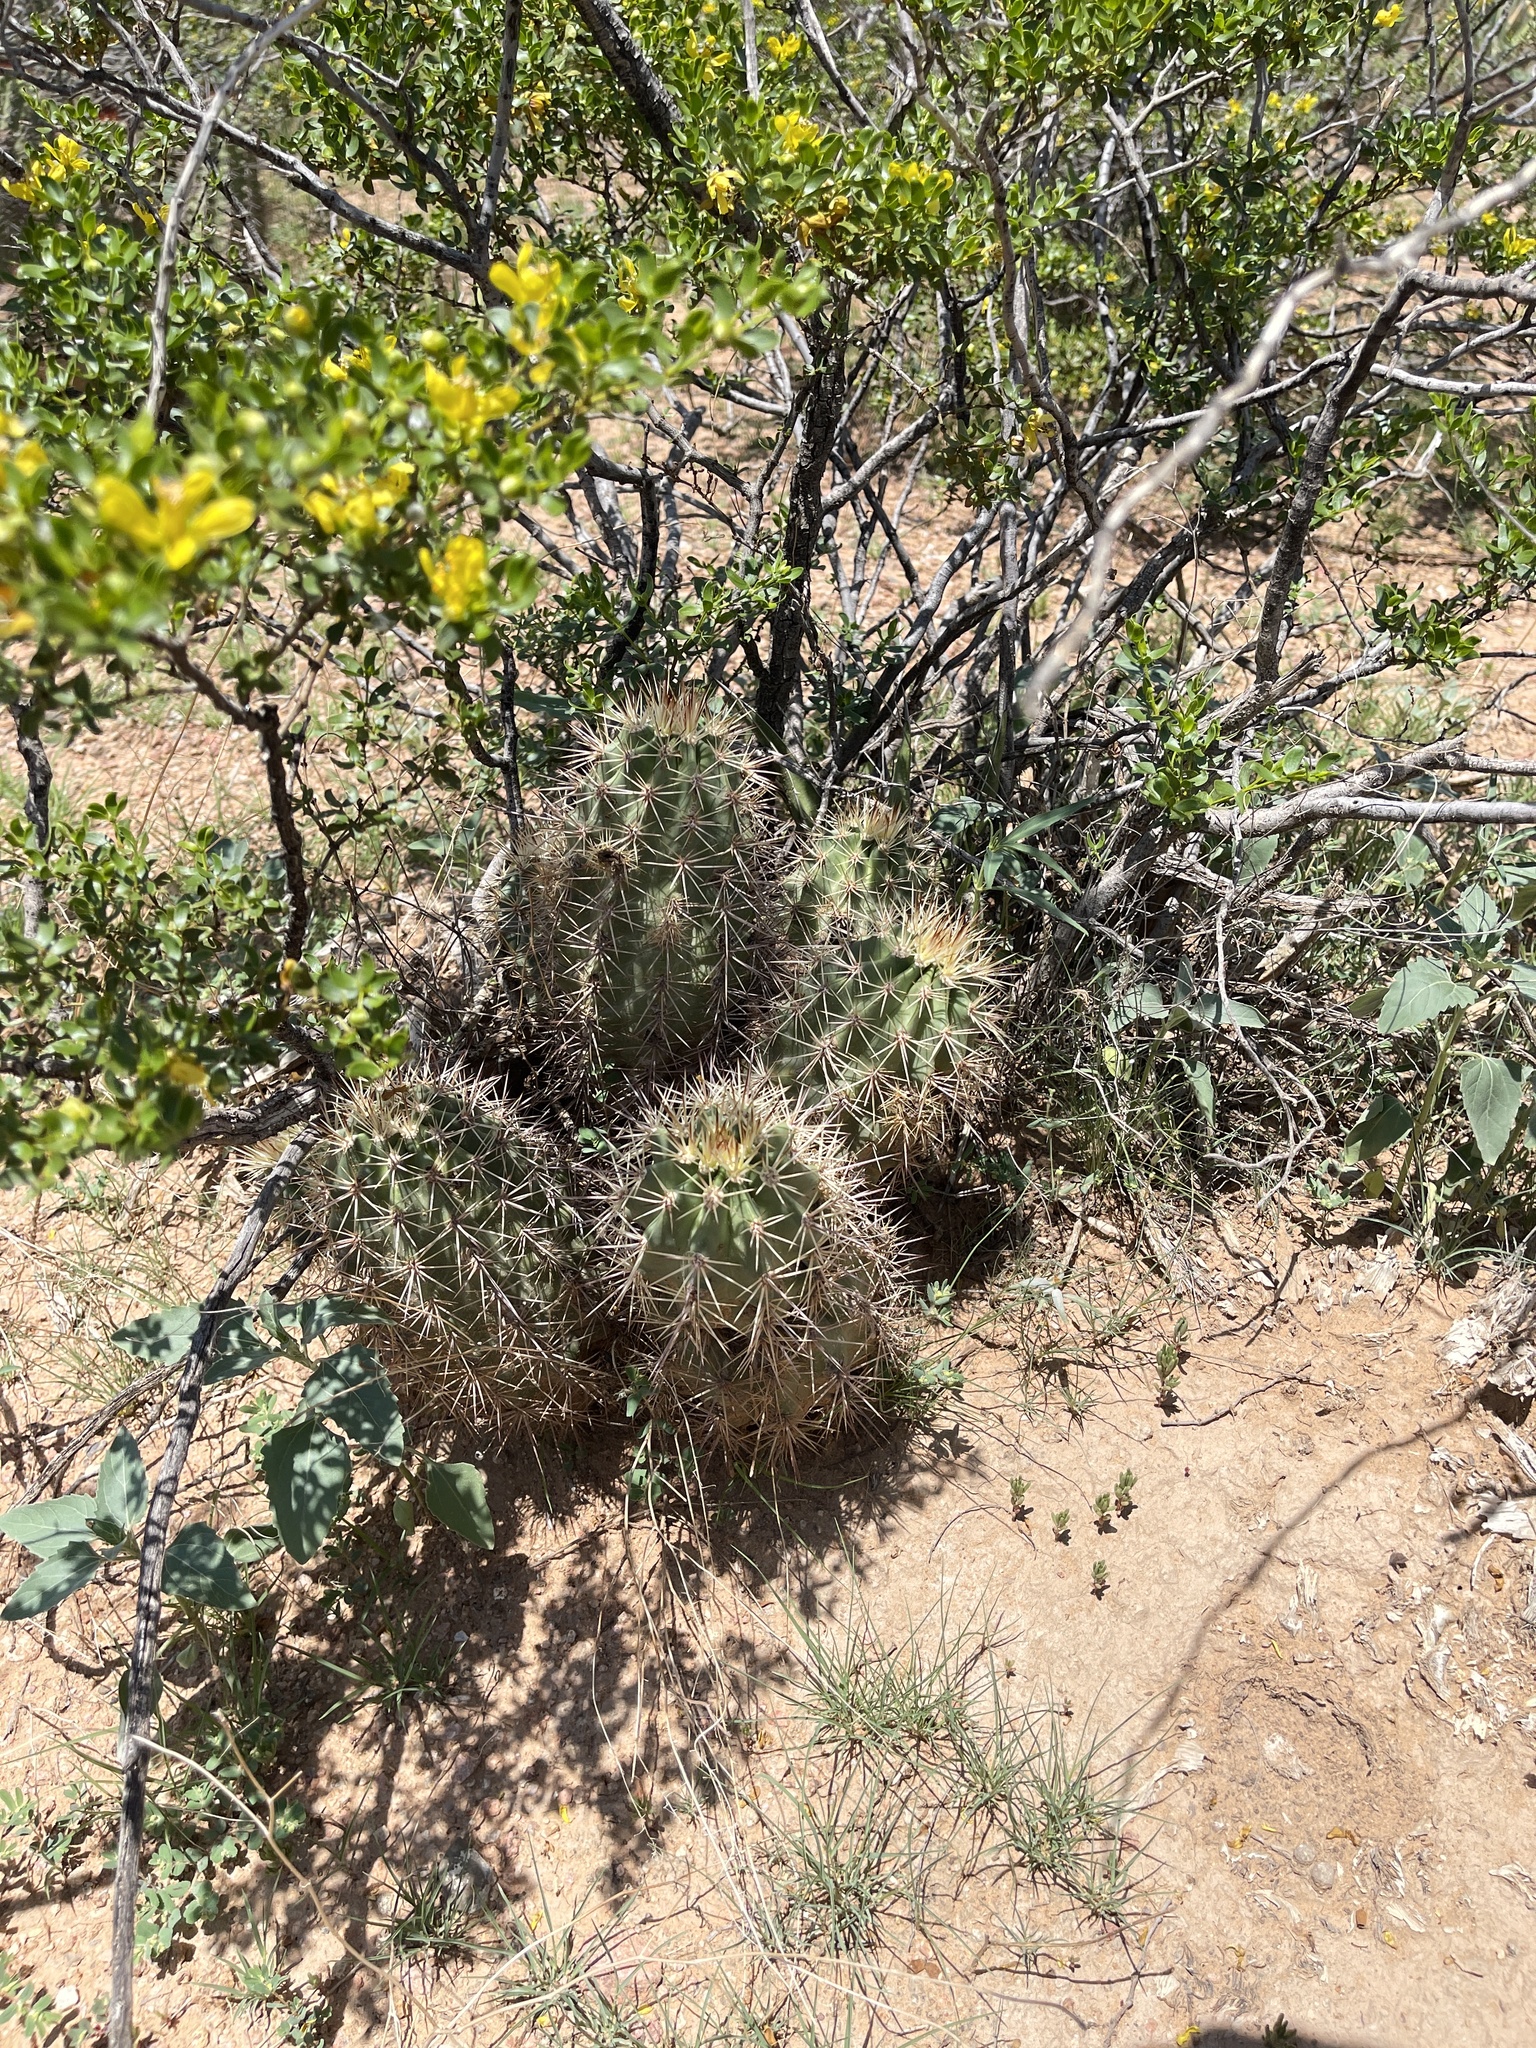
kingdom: Plantae
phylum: Tracheophyta
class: Magnoliopsida
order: Caryophyllales
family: Cactaceae
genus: Echinocereus
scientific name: Echinocereus coccineus
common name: Scarlet hedgehog cactus
